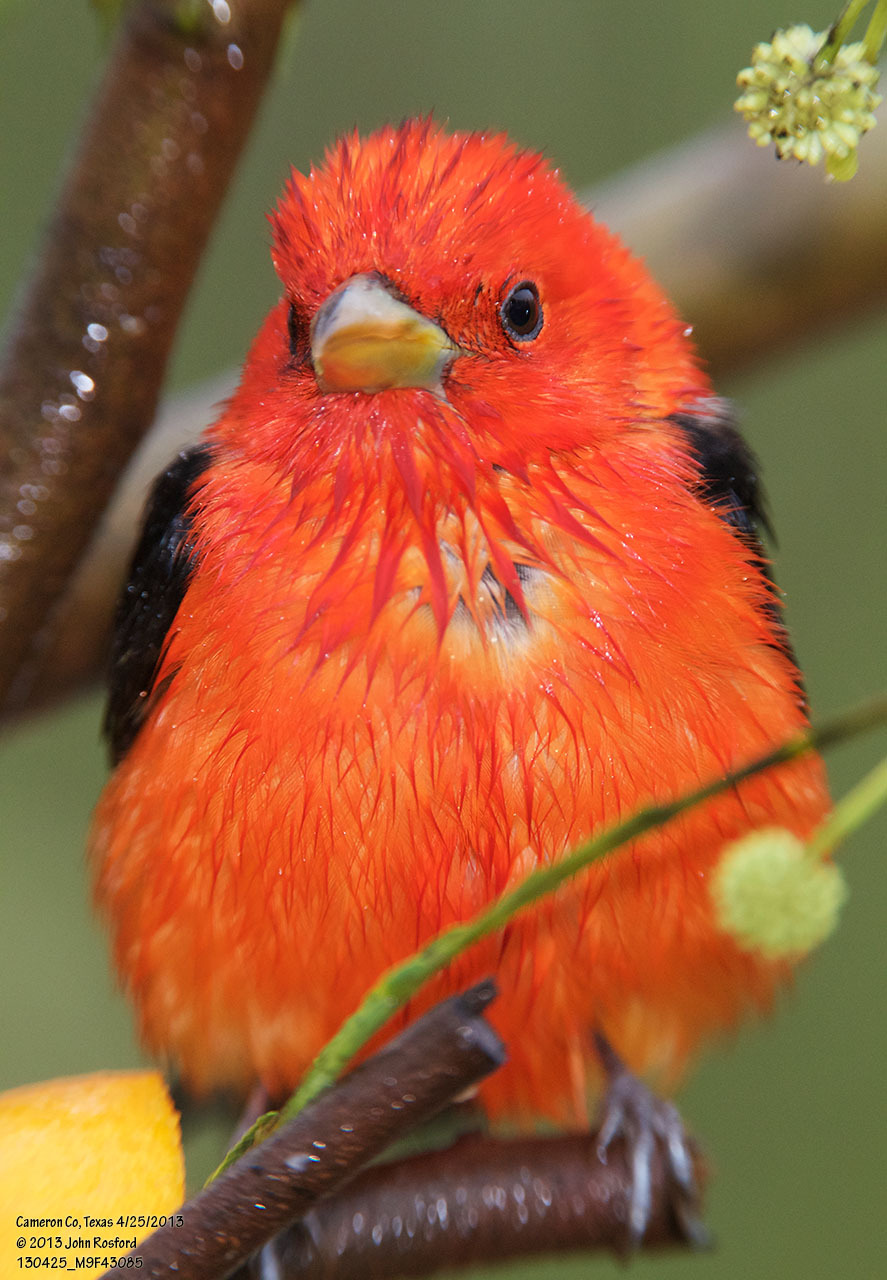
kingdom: Animalia
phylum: Chordata
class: Aves
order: Passeriformes
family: Cardinalidae
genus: Piranga
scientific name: Piranga olivacea
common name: Scarlet tanager
